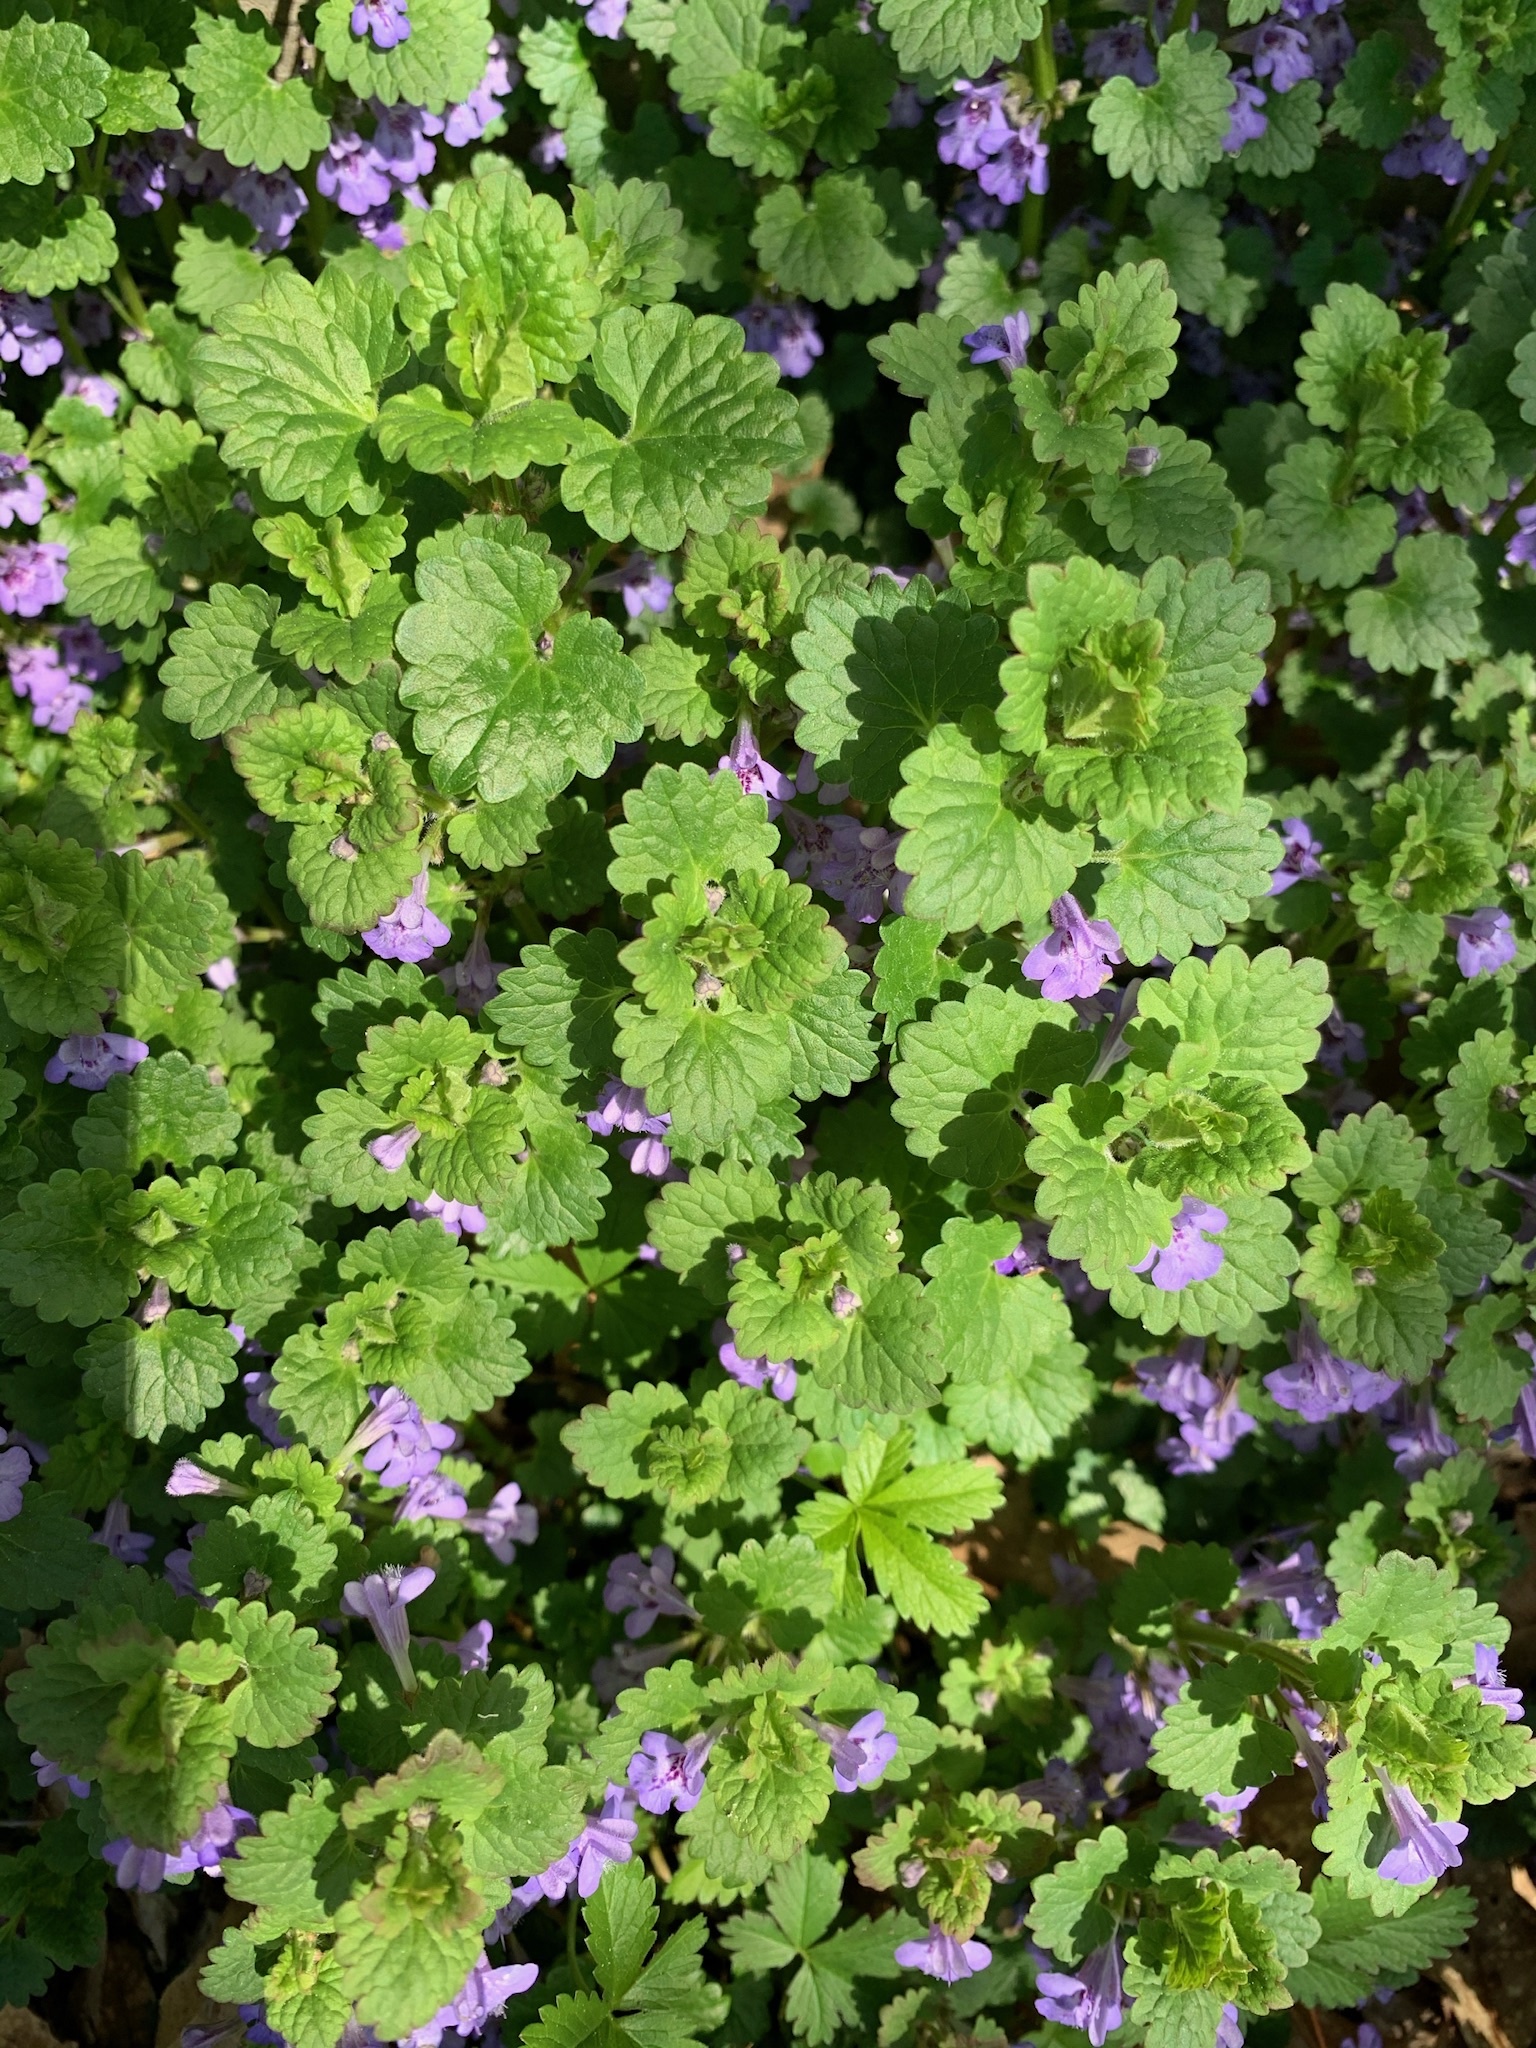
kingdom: Plantae
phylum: Tracheophyta
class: Magnoliopsida
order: Lamiales
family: Lamiaceae
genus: Glechoma
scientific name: Glechoma hederacea
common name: Ground ivy
